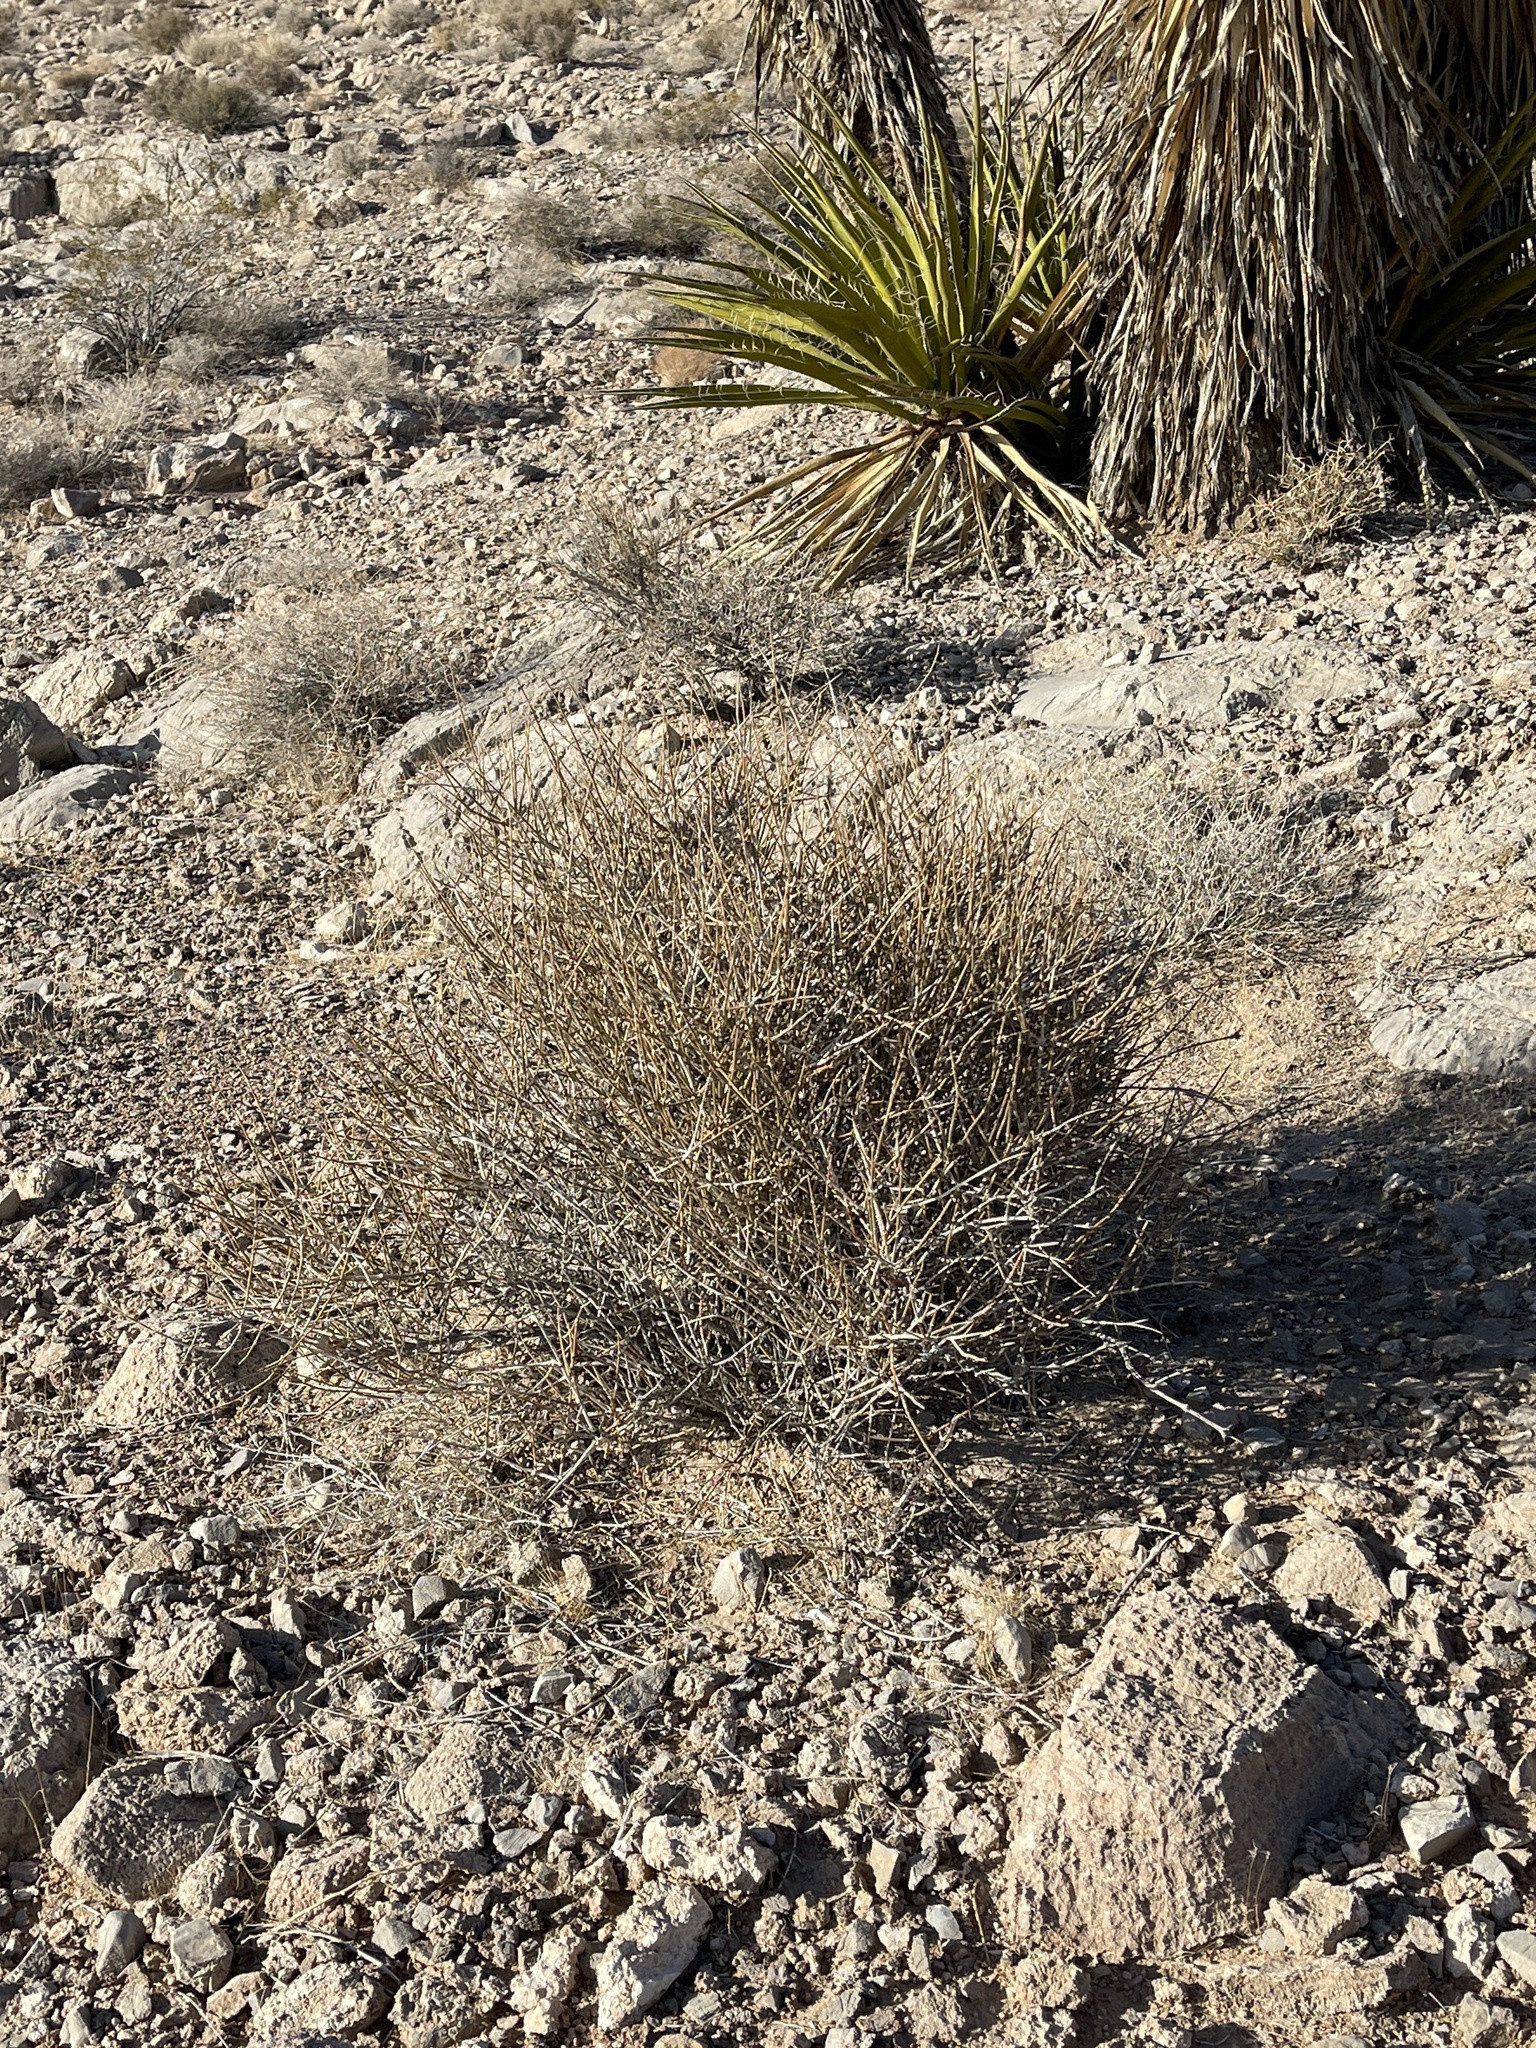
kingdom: Plantae
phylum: Tracheophyta
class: Gnetopsida
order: Ephedrales
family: Ephedraceae
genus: Ephedra
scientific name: Ephedra nevadensis
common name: Gray ephedra
